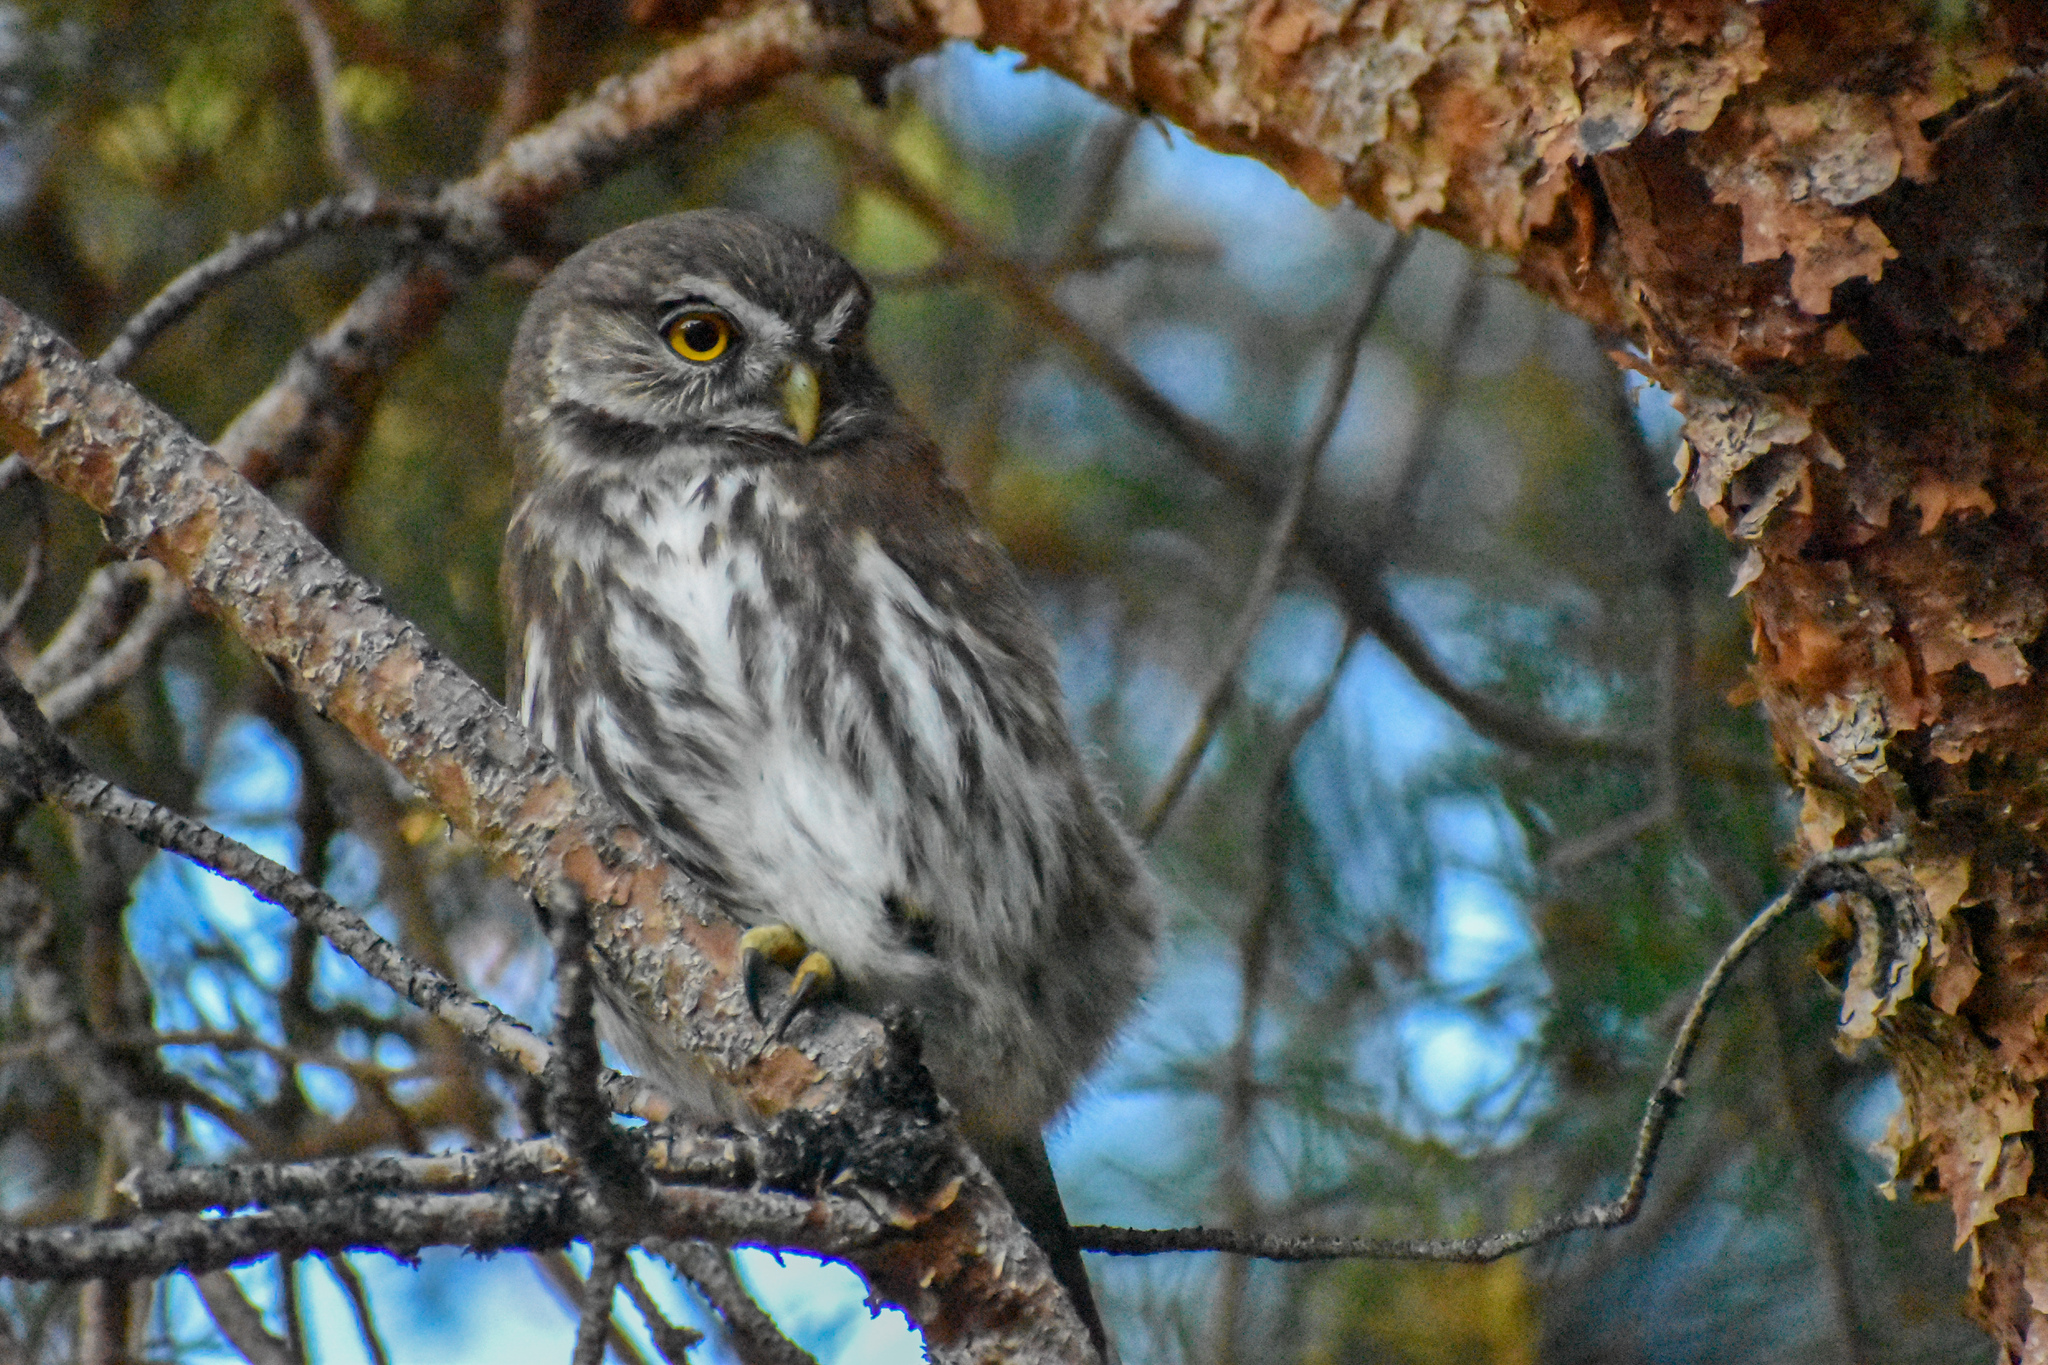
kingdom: Animalia
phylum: Chordata
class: Aves
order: Strigiformes
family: Strigidae
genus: Glaucidium
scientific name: Glaucidium nana
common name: Austral pygmy-owl
